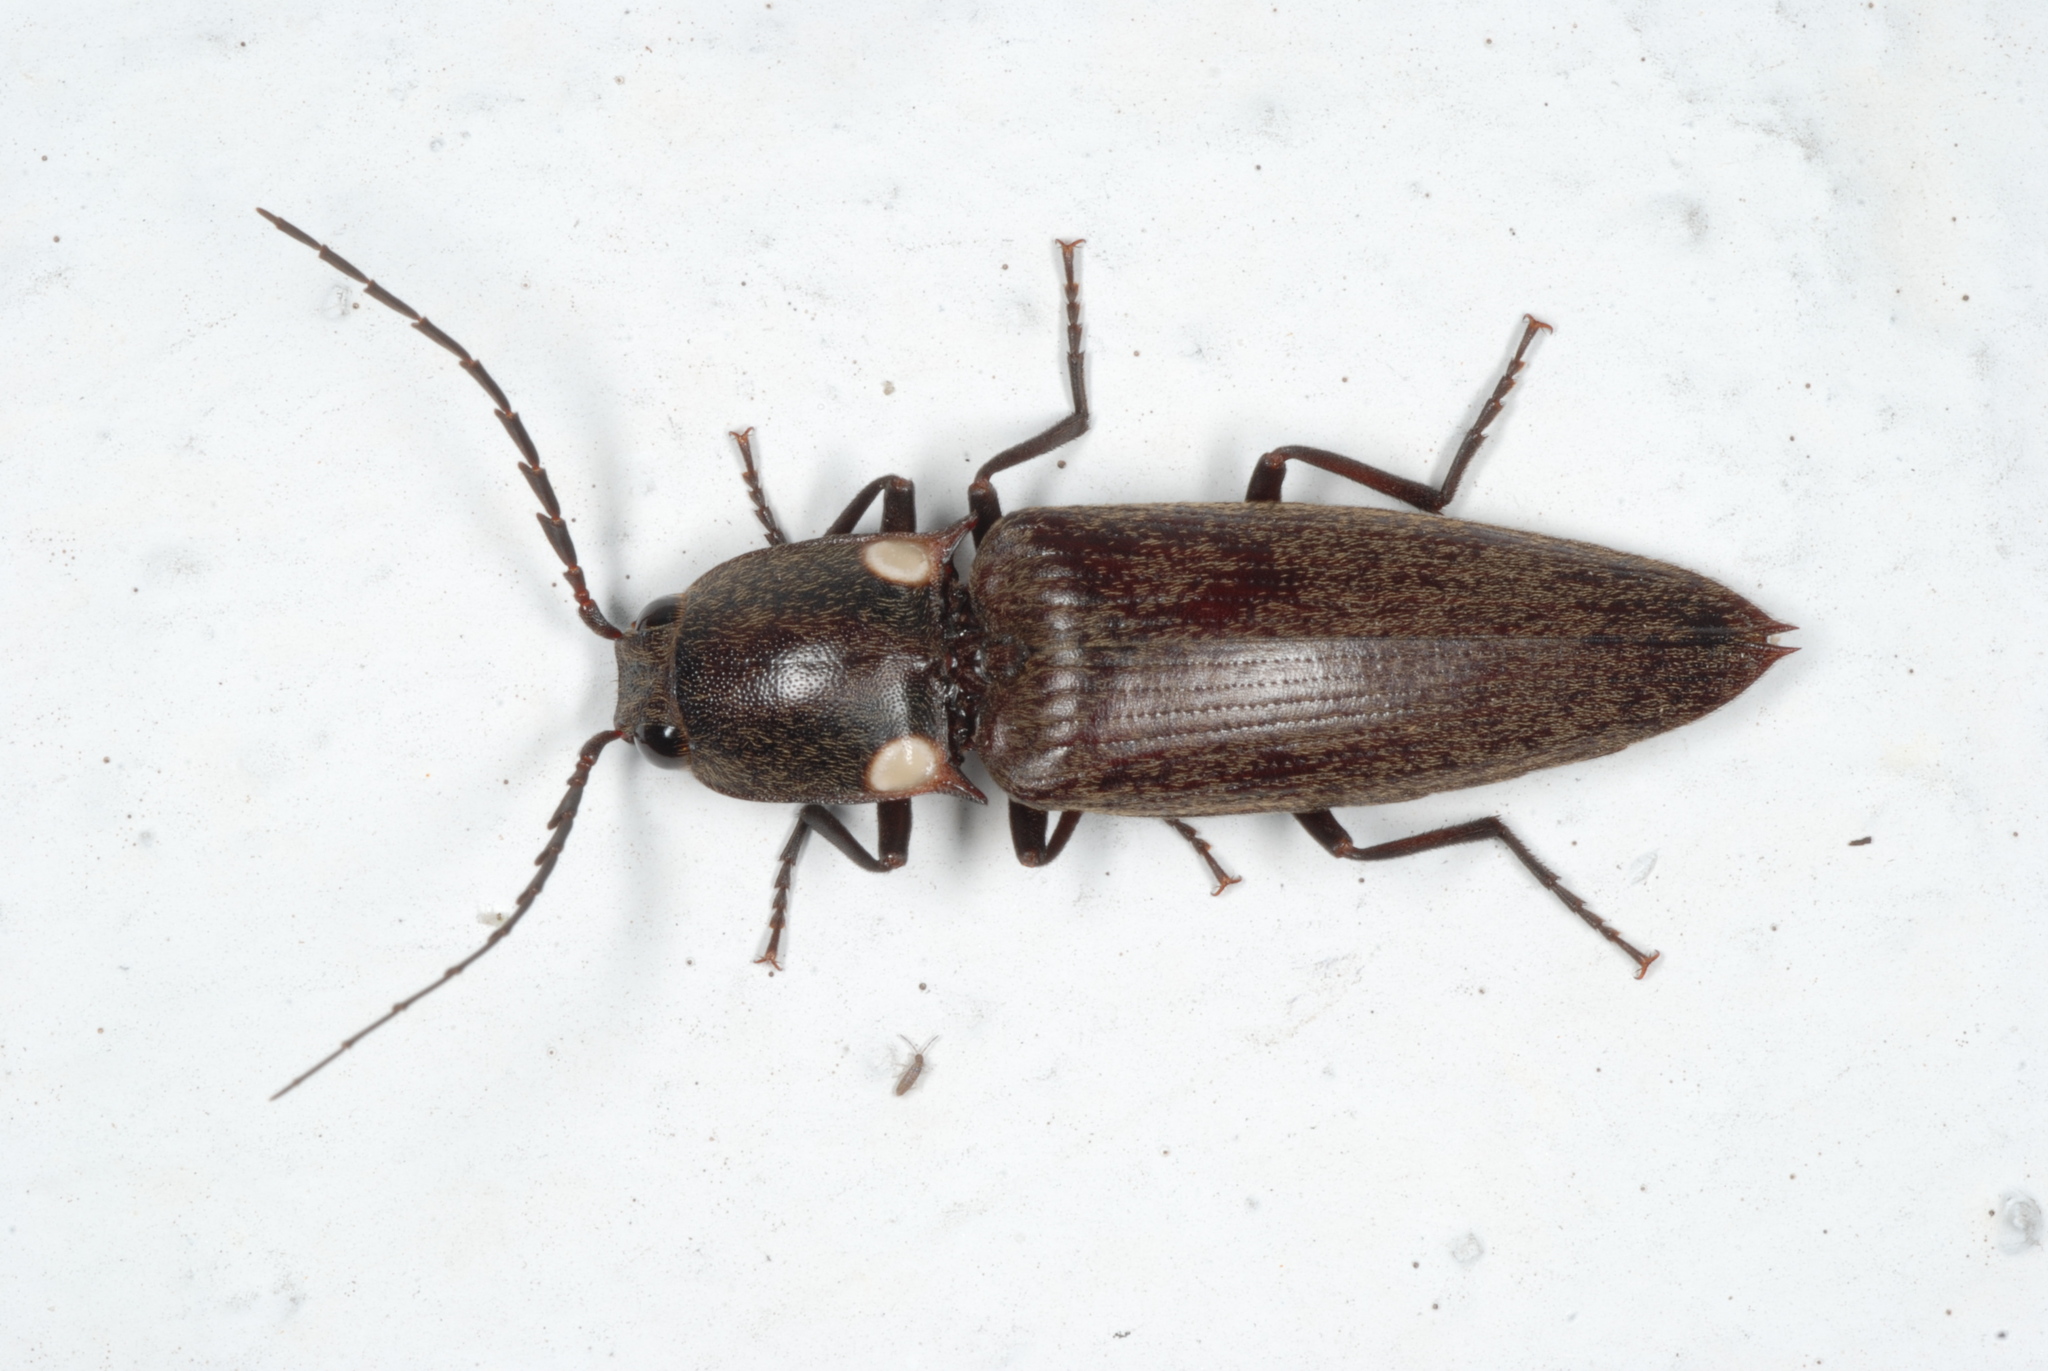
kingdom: Animalia
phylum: Arthropoda
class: Insecta
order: Coleoptera
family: Elateridae
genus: Ignelater
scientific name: Ignelater havaniensis
